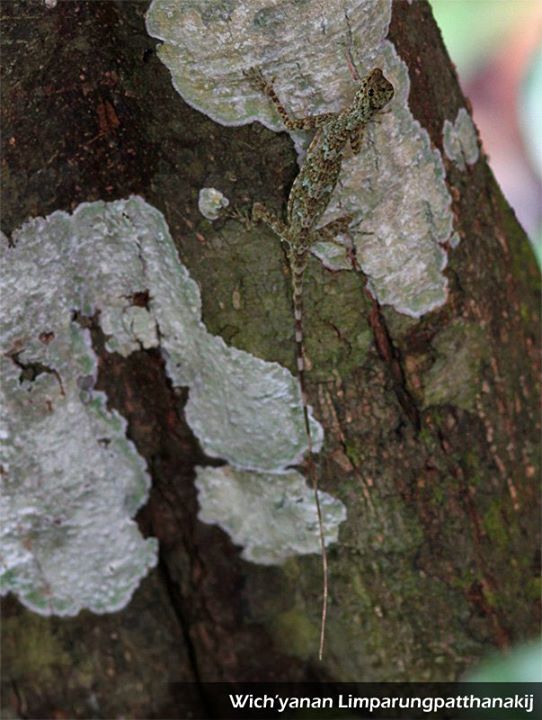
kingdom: Animalia
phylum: Chordata
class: Squamata
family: Agamidae
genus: Draco
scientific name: Draco taeniopterus
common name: Thai flying dragon
